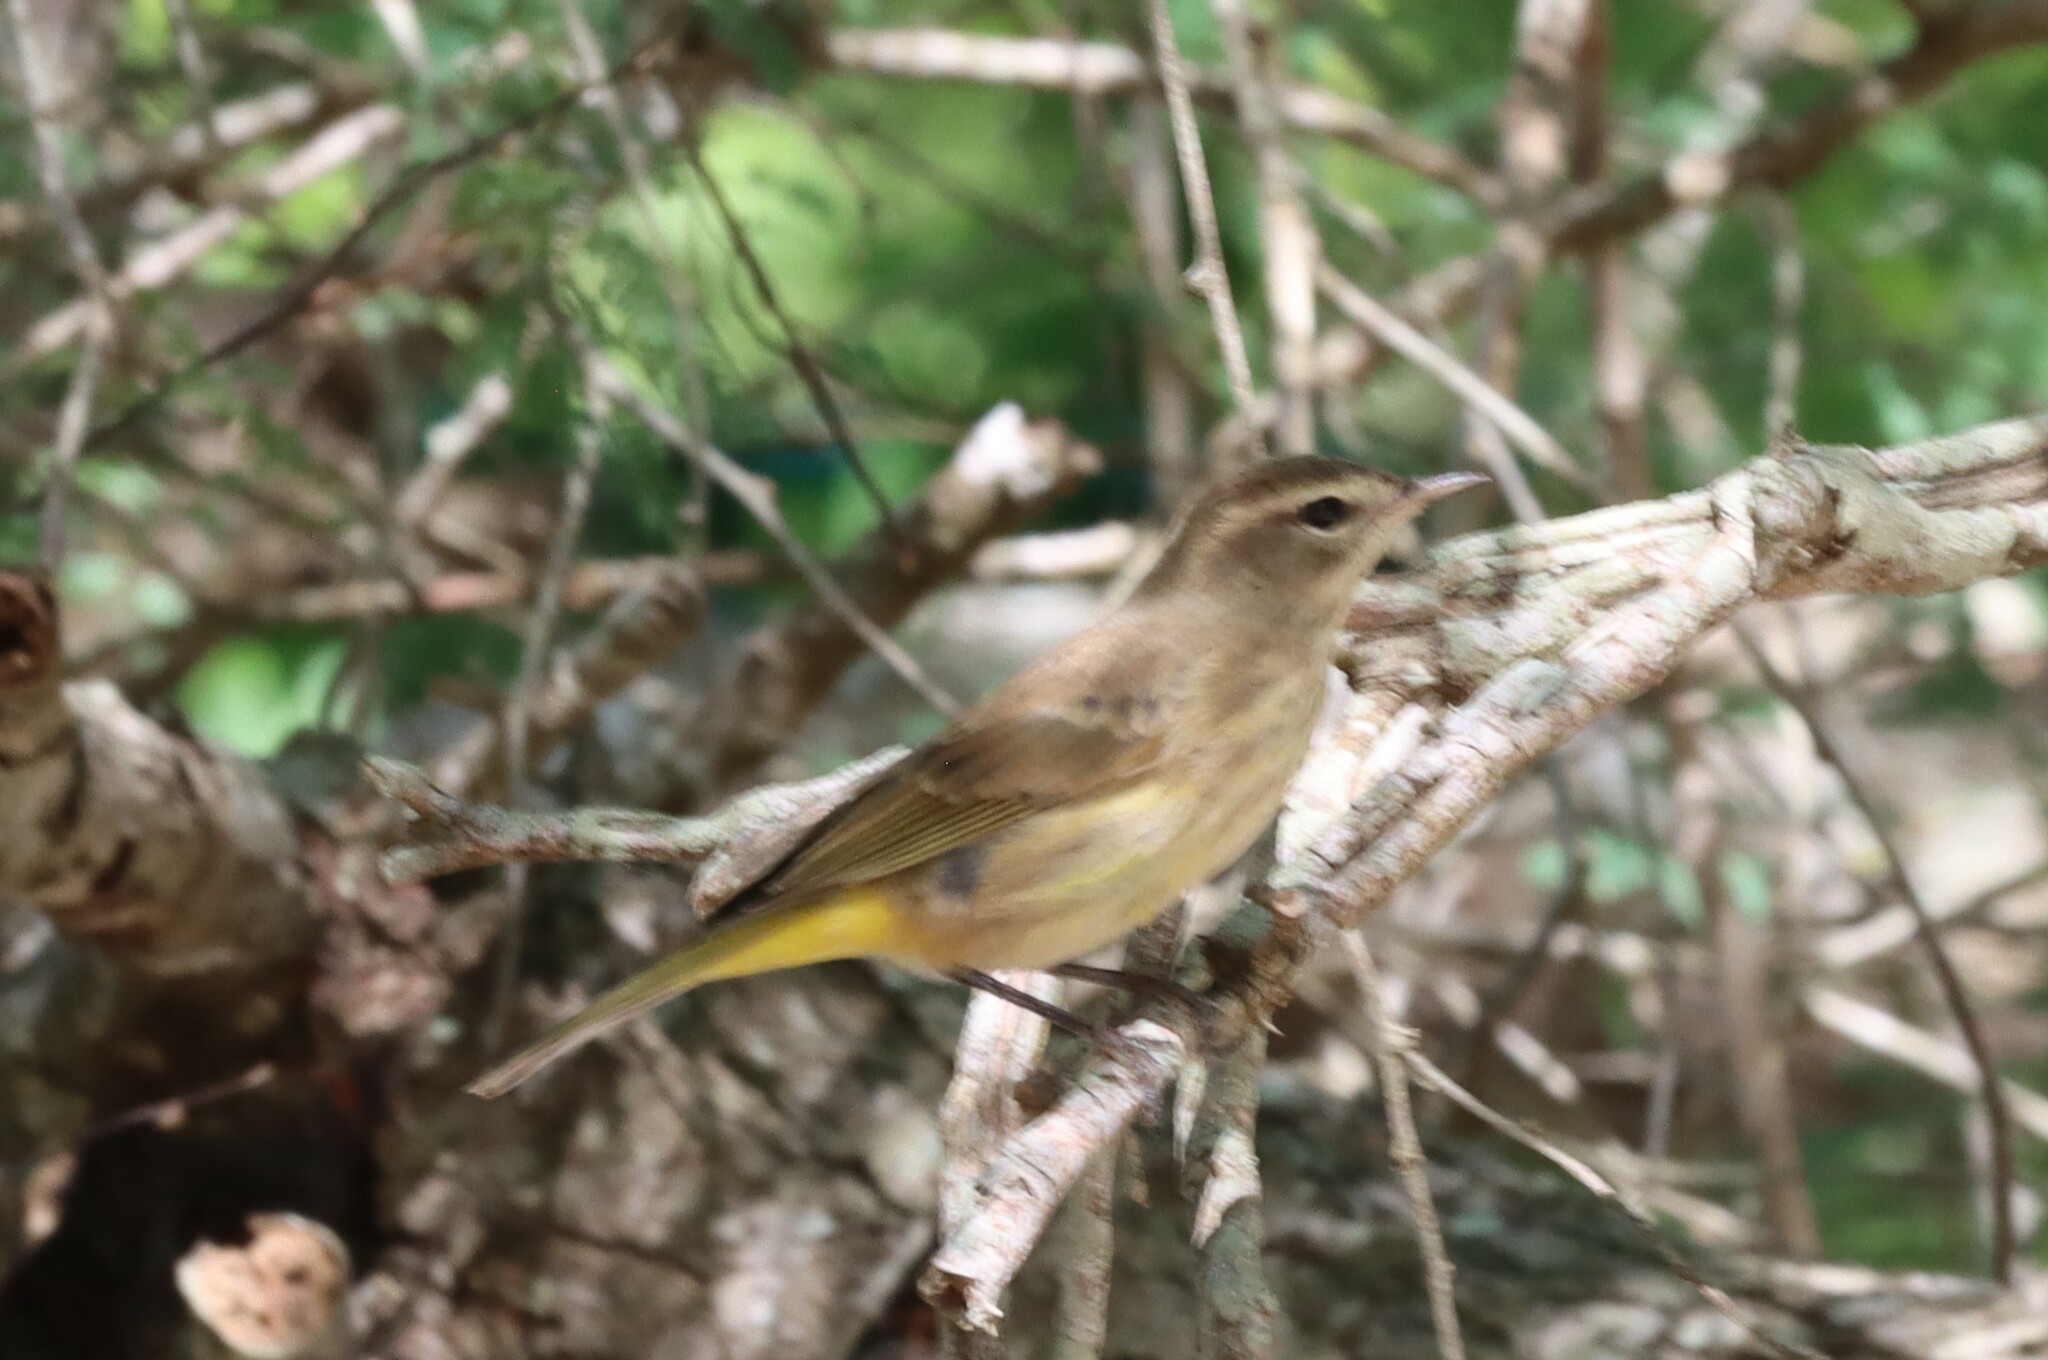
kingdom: Animalia
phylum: Chordata
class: Aves
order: Passeriformes
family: Parulidae
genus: Setophaga
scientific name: Setophaga palmarum
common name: Palm warbler
